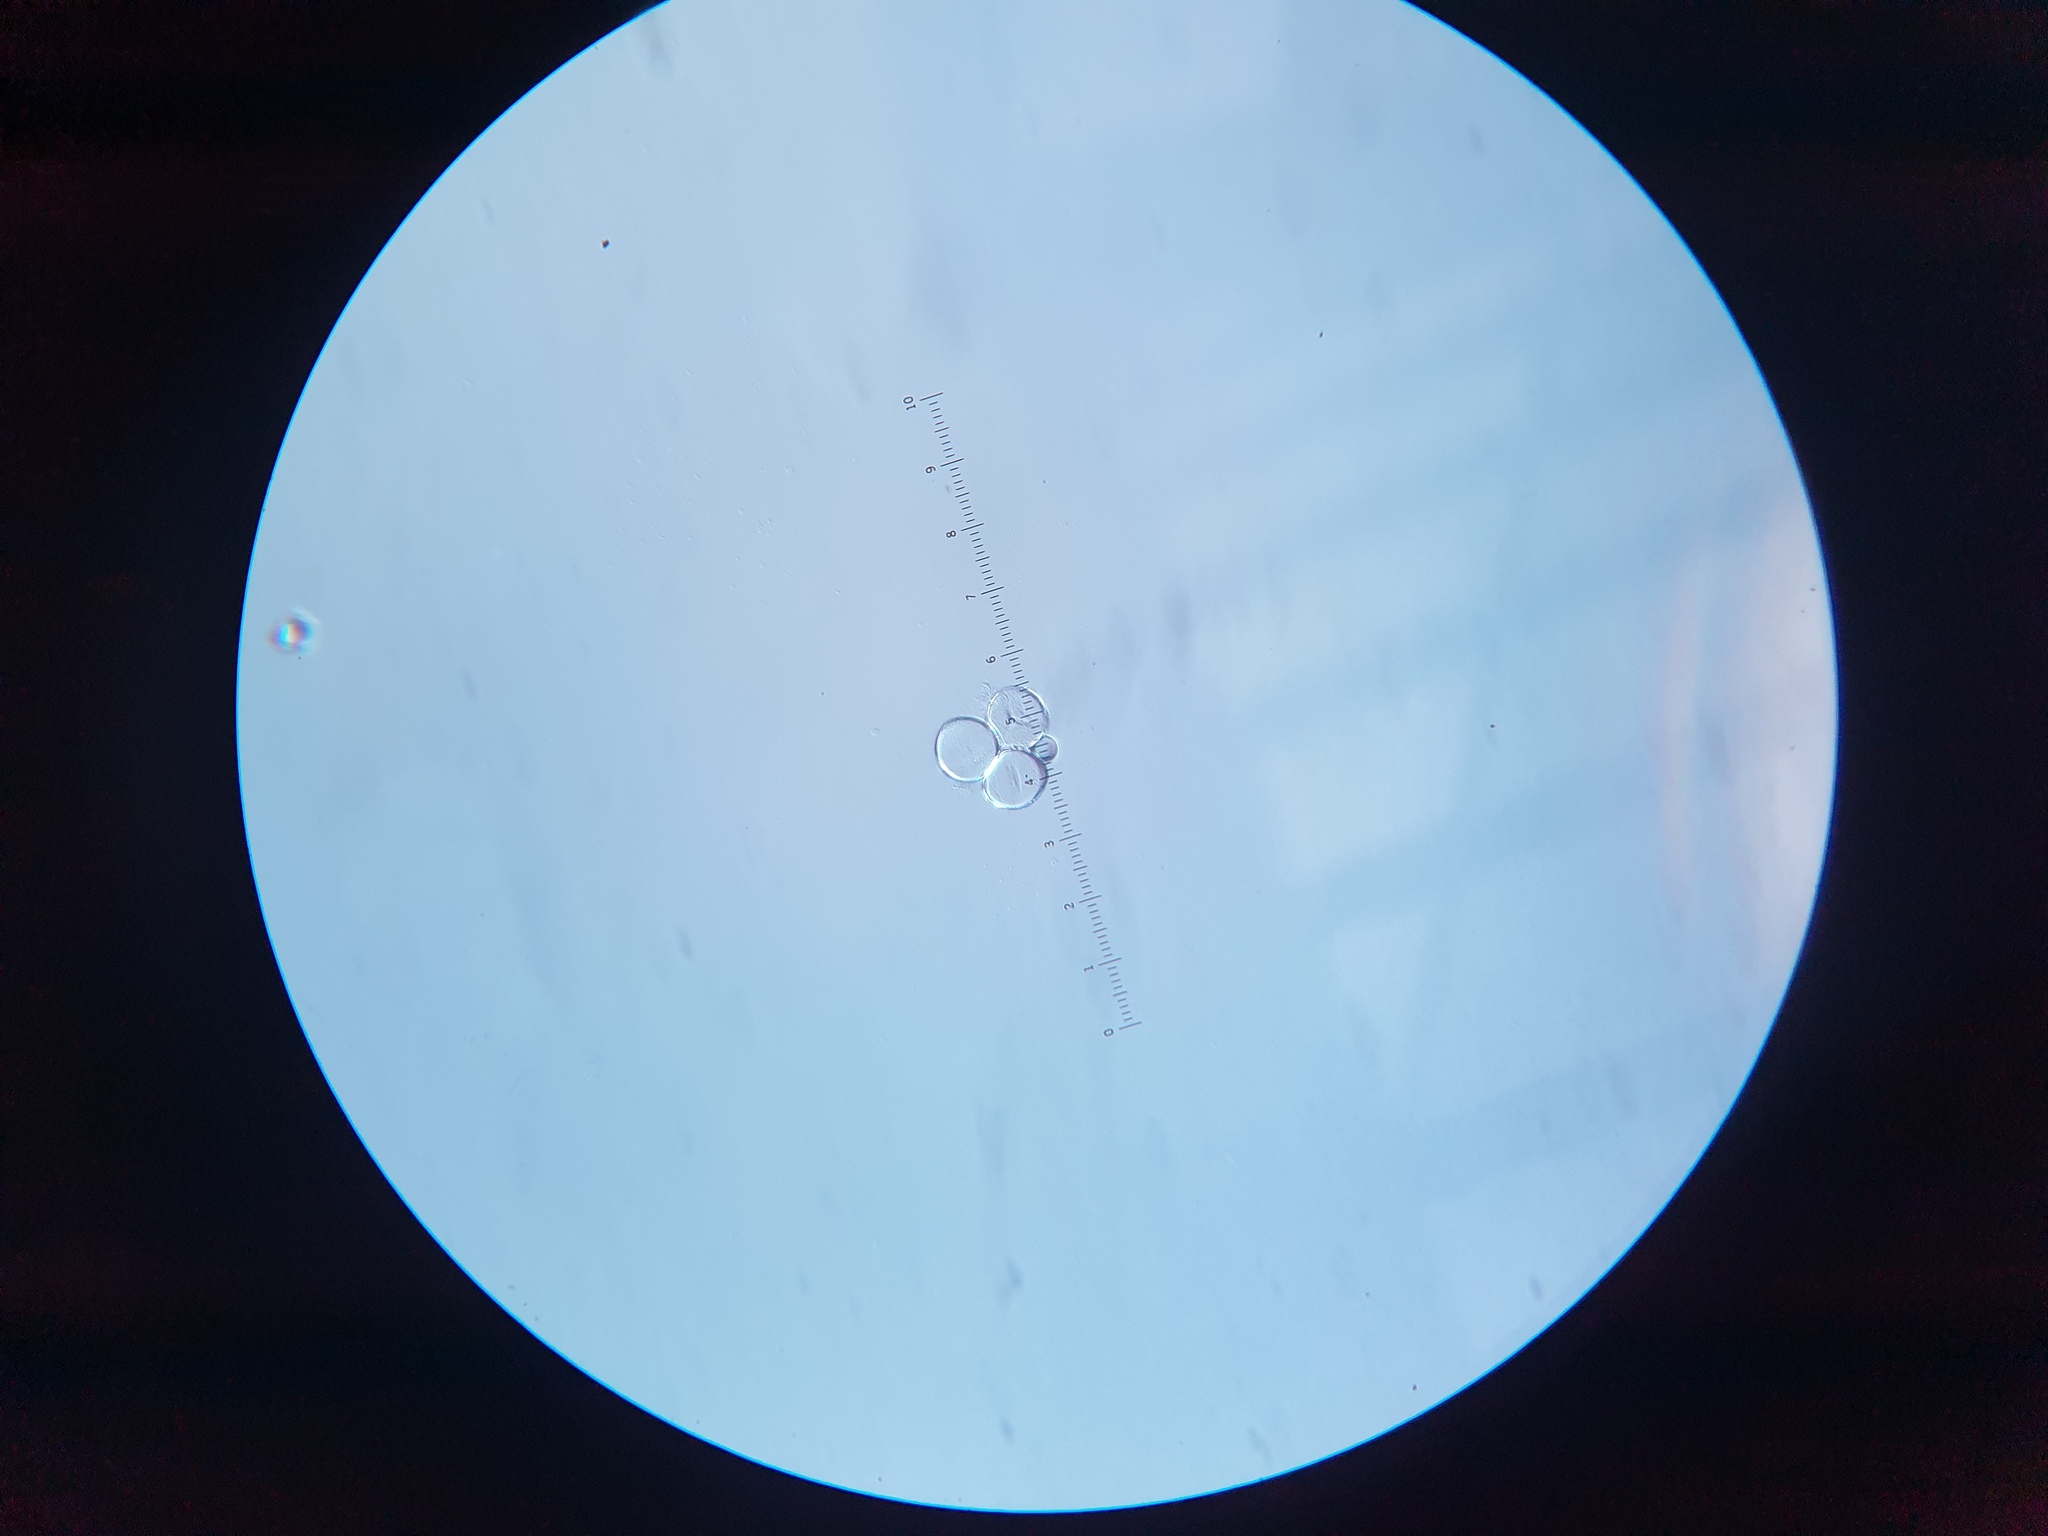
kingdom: Plantae
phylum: Tracheophyta
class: Magnoliopsida
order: Malpighiales
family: Violaceae
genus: Viola
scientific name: Viola adunca
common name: Sand violet
